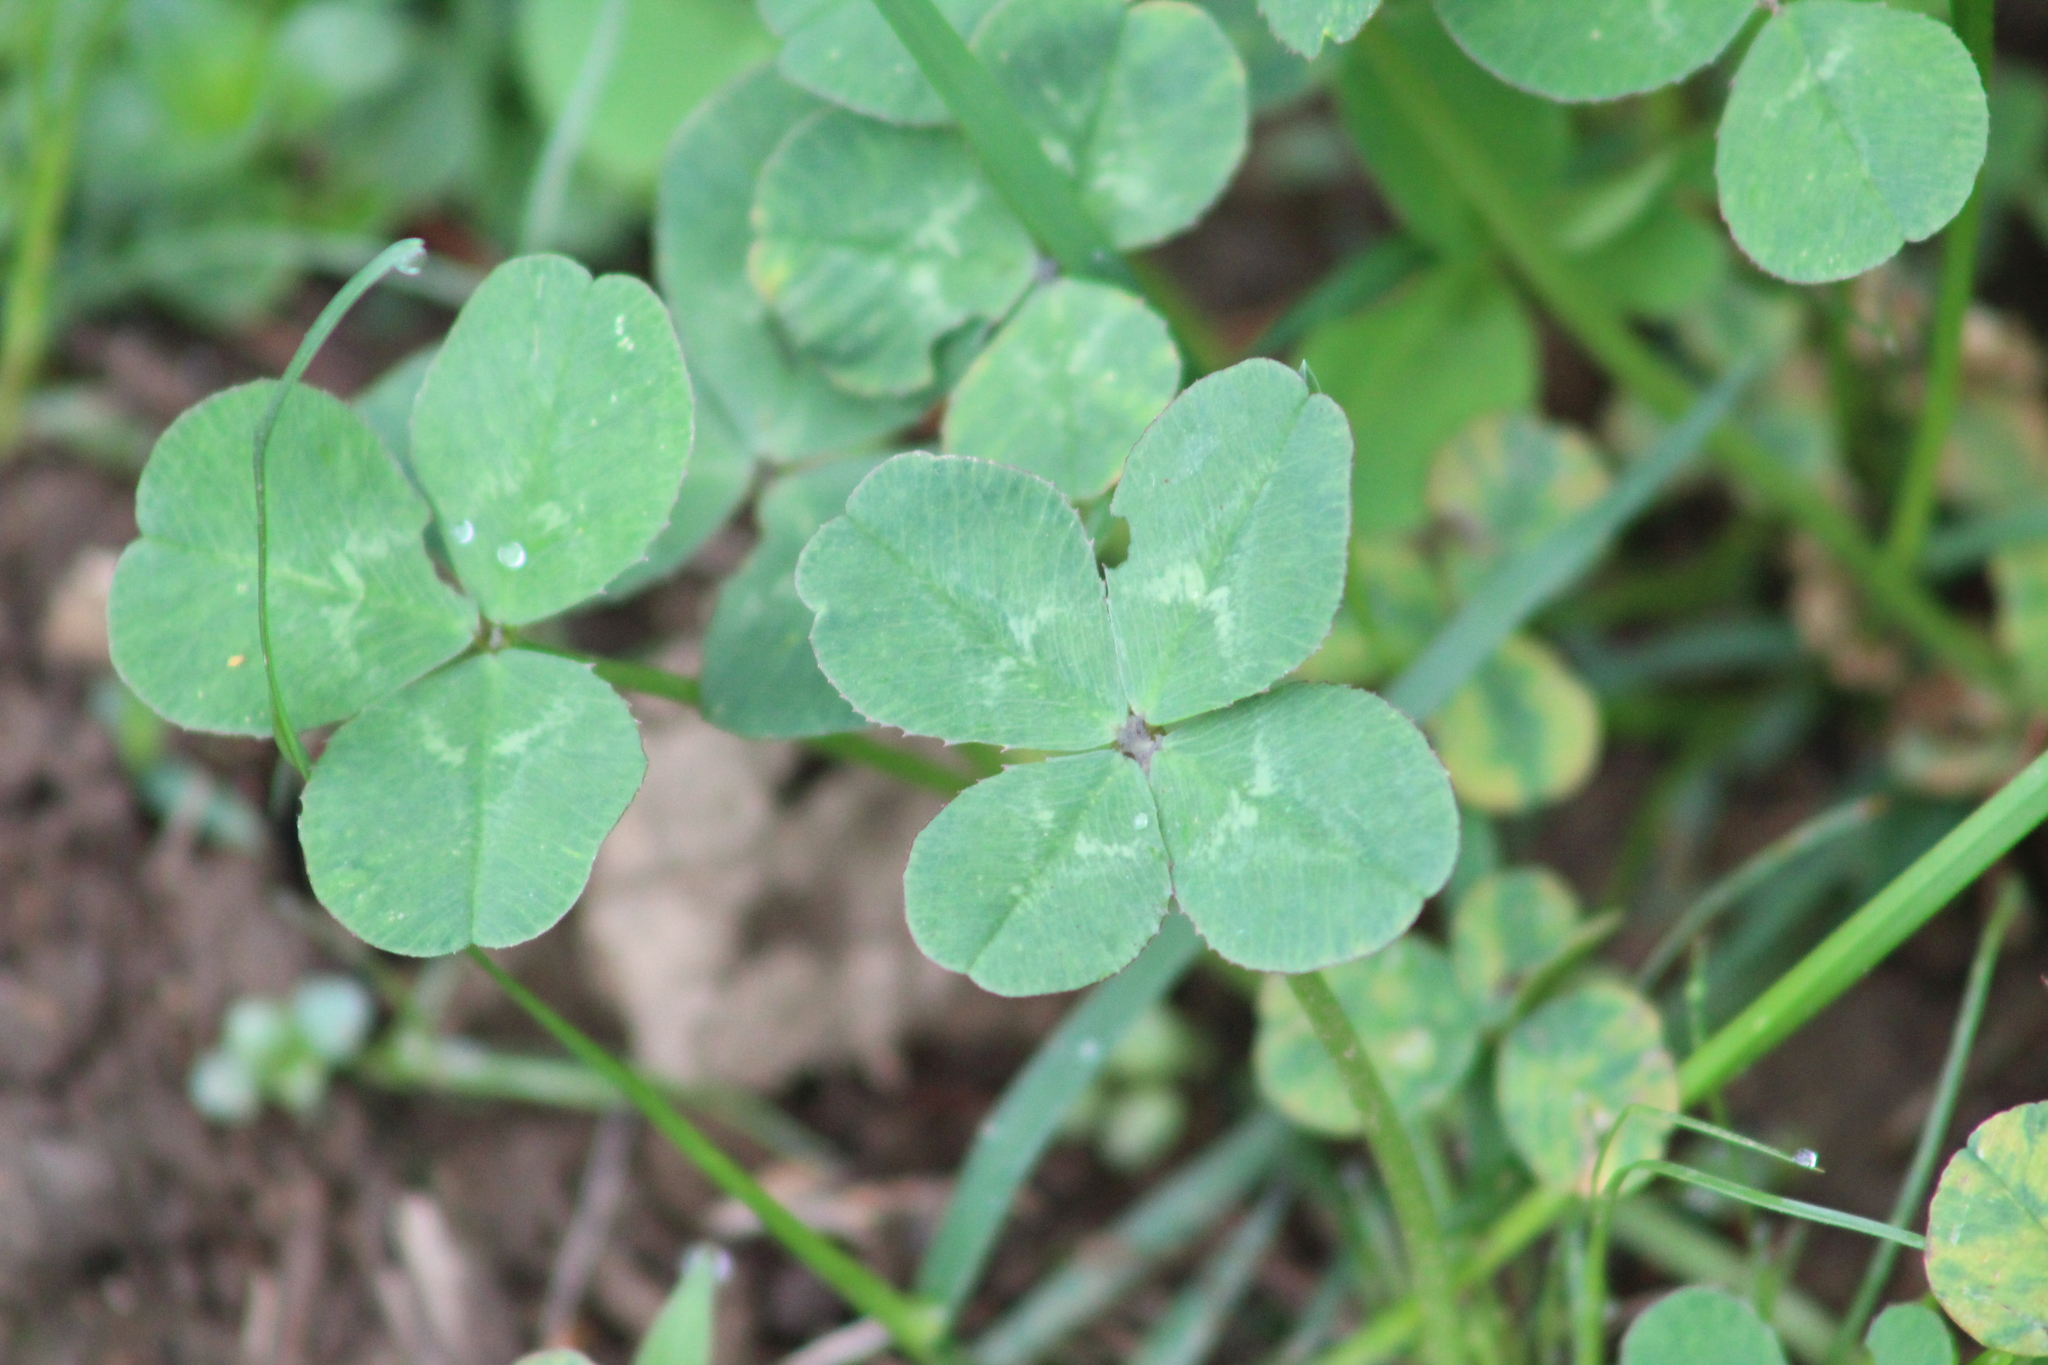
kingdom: Plantae
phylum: Tracheophyta
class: Magnoliopsida
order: Fabales
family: Fabaceae
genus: Trifolium
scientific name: Trifolium repens
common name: White clover
